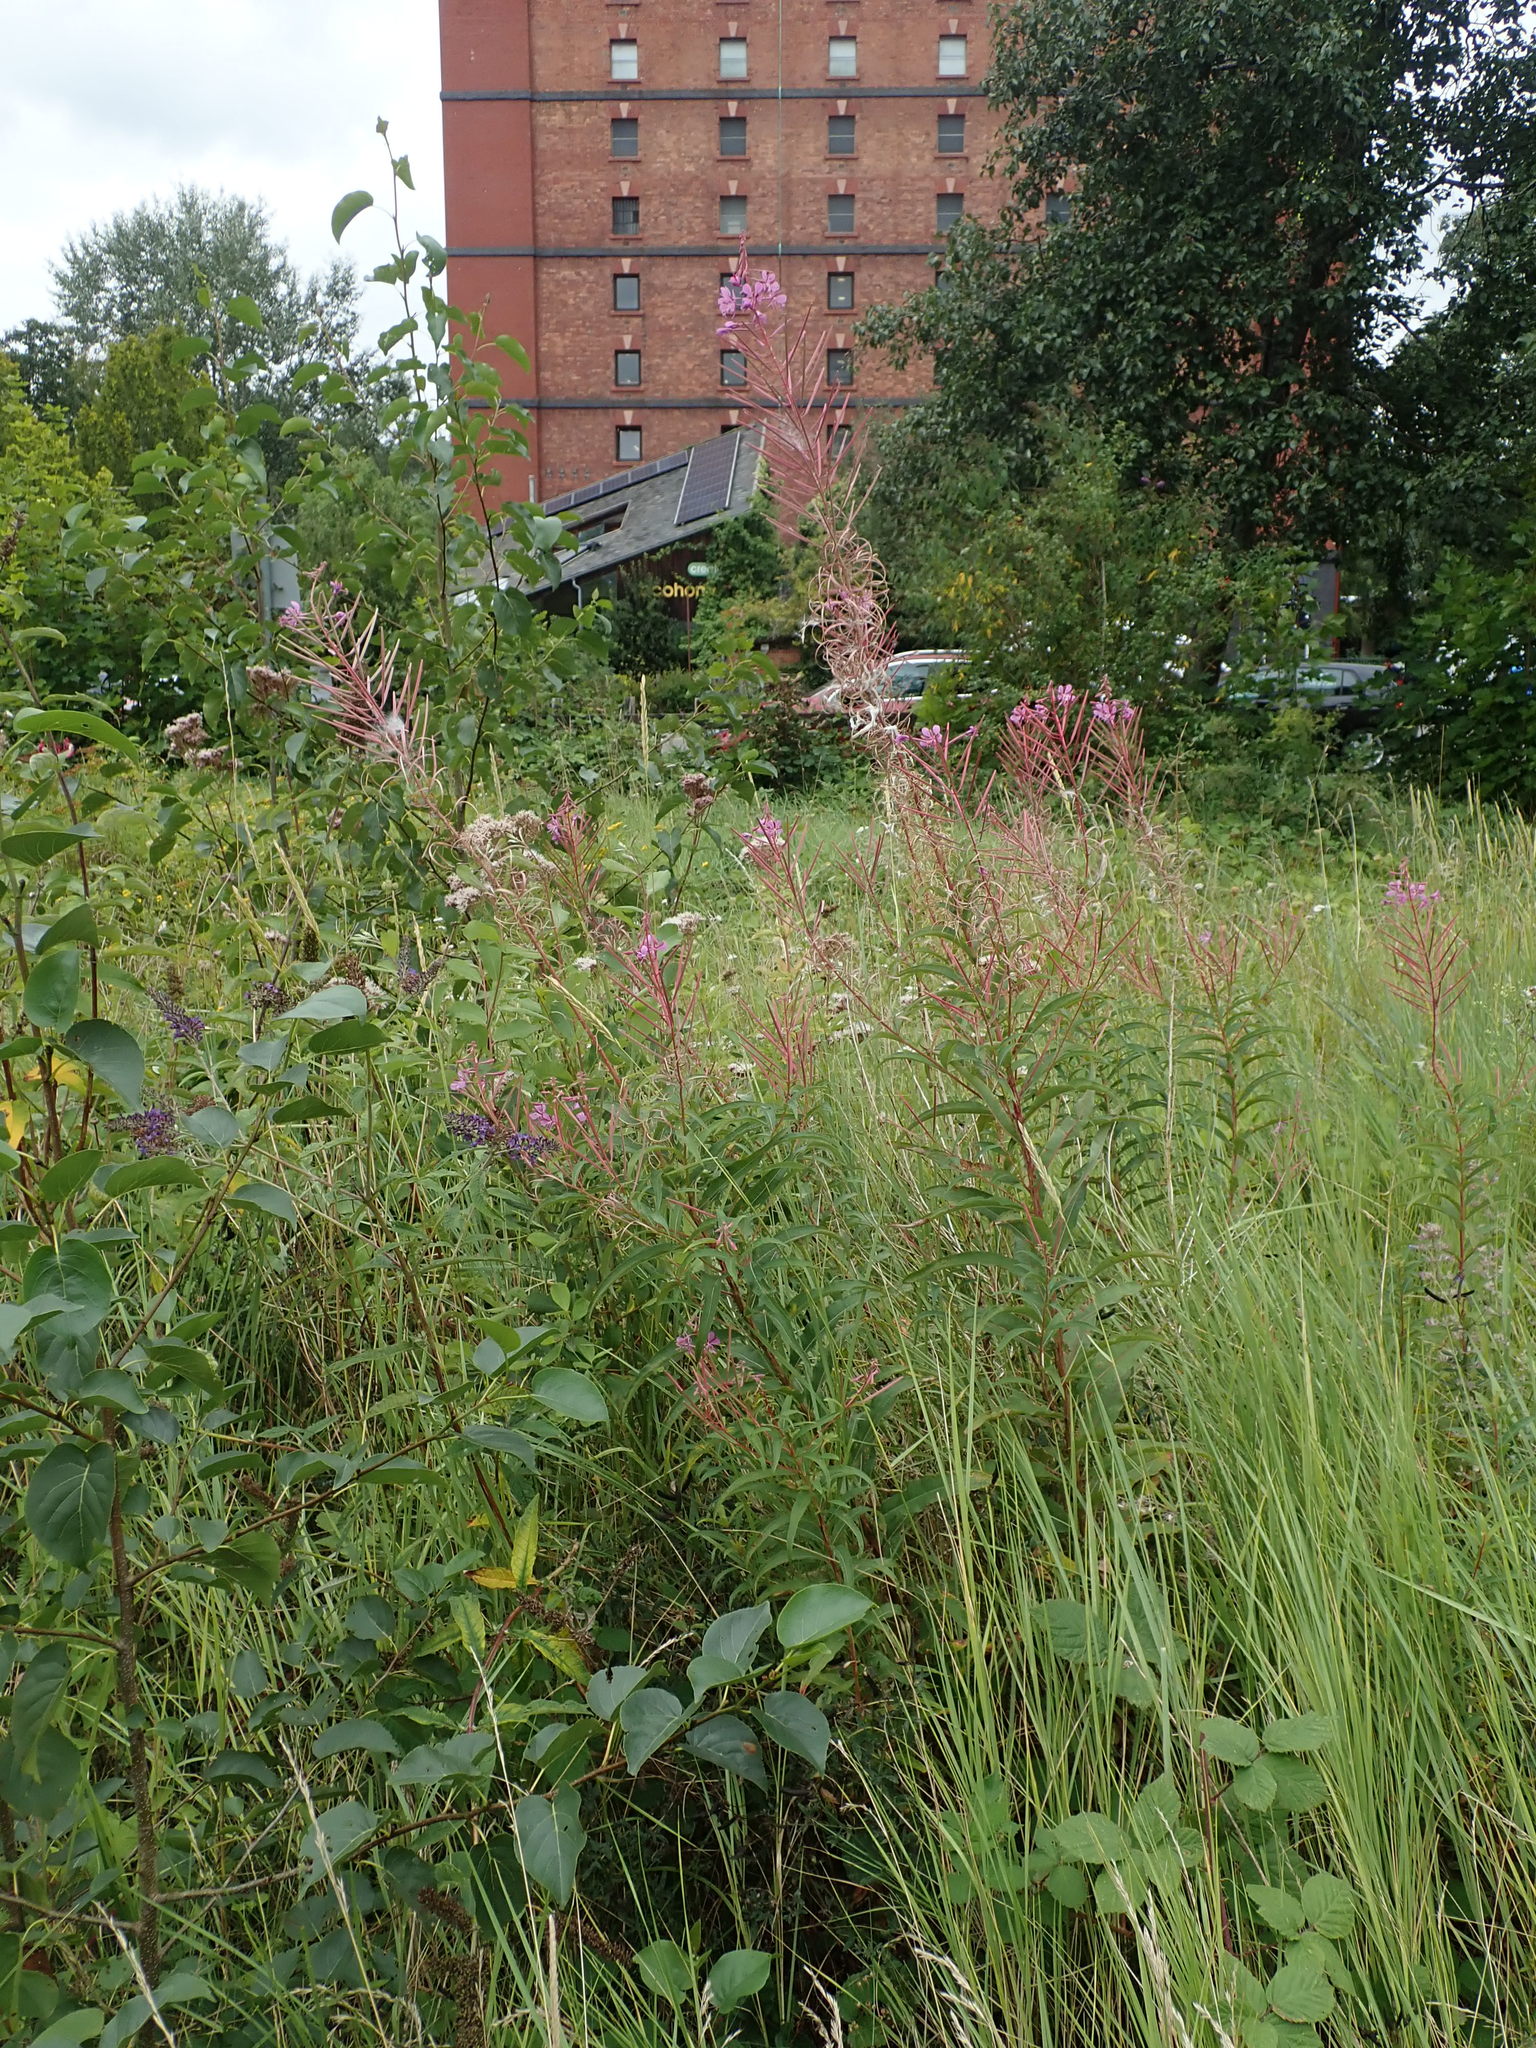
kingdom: Plantae
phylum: Tracheophyta
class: Magnoliopsida
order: Myrtales
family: Onagraceae
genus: Chamaenerion
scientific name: Chamaenerion angustifolium
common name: Fireweed
